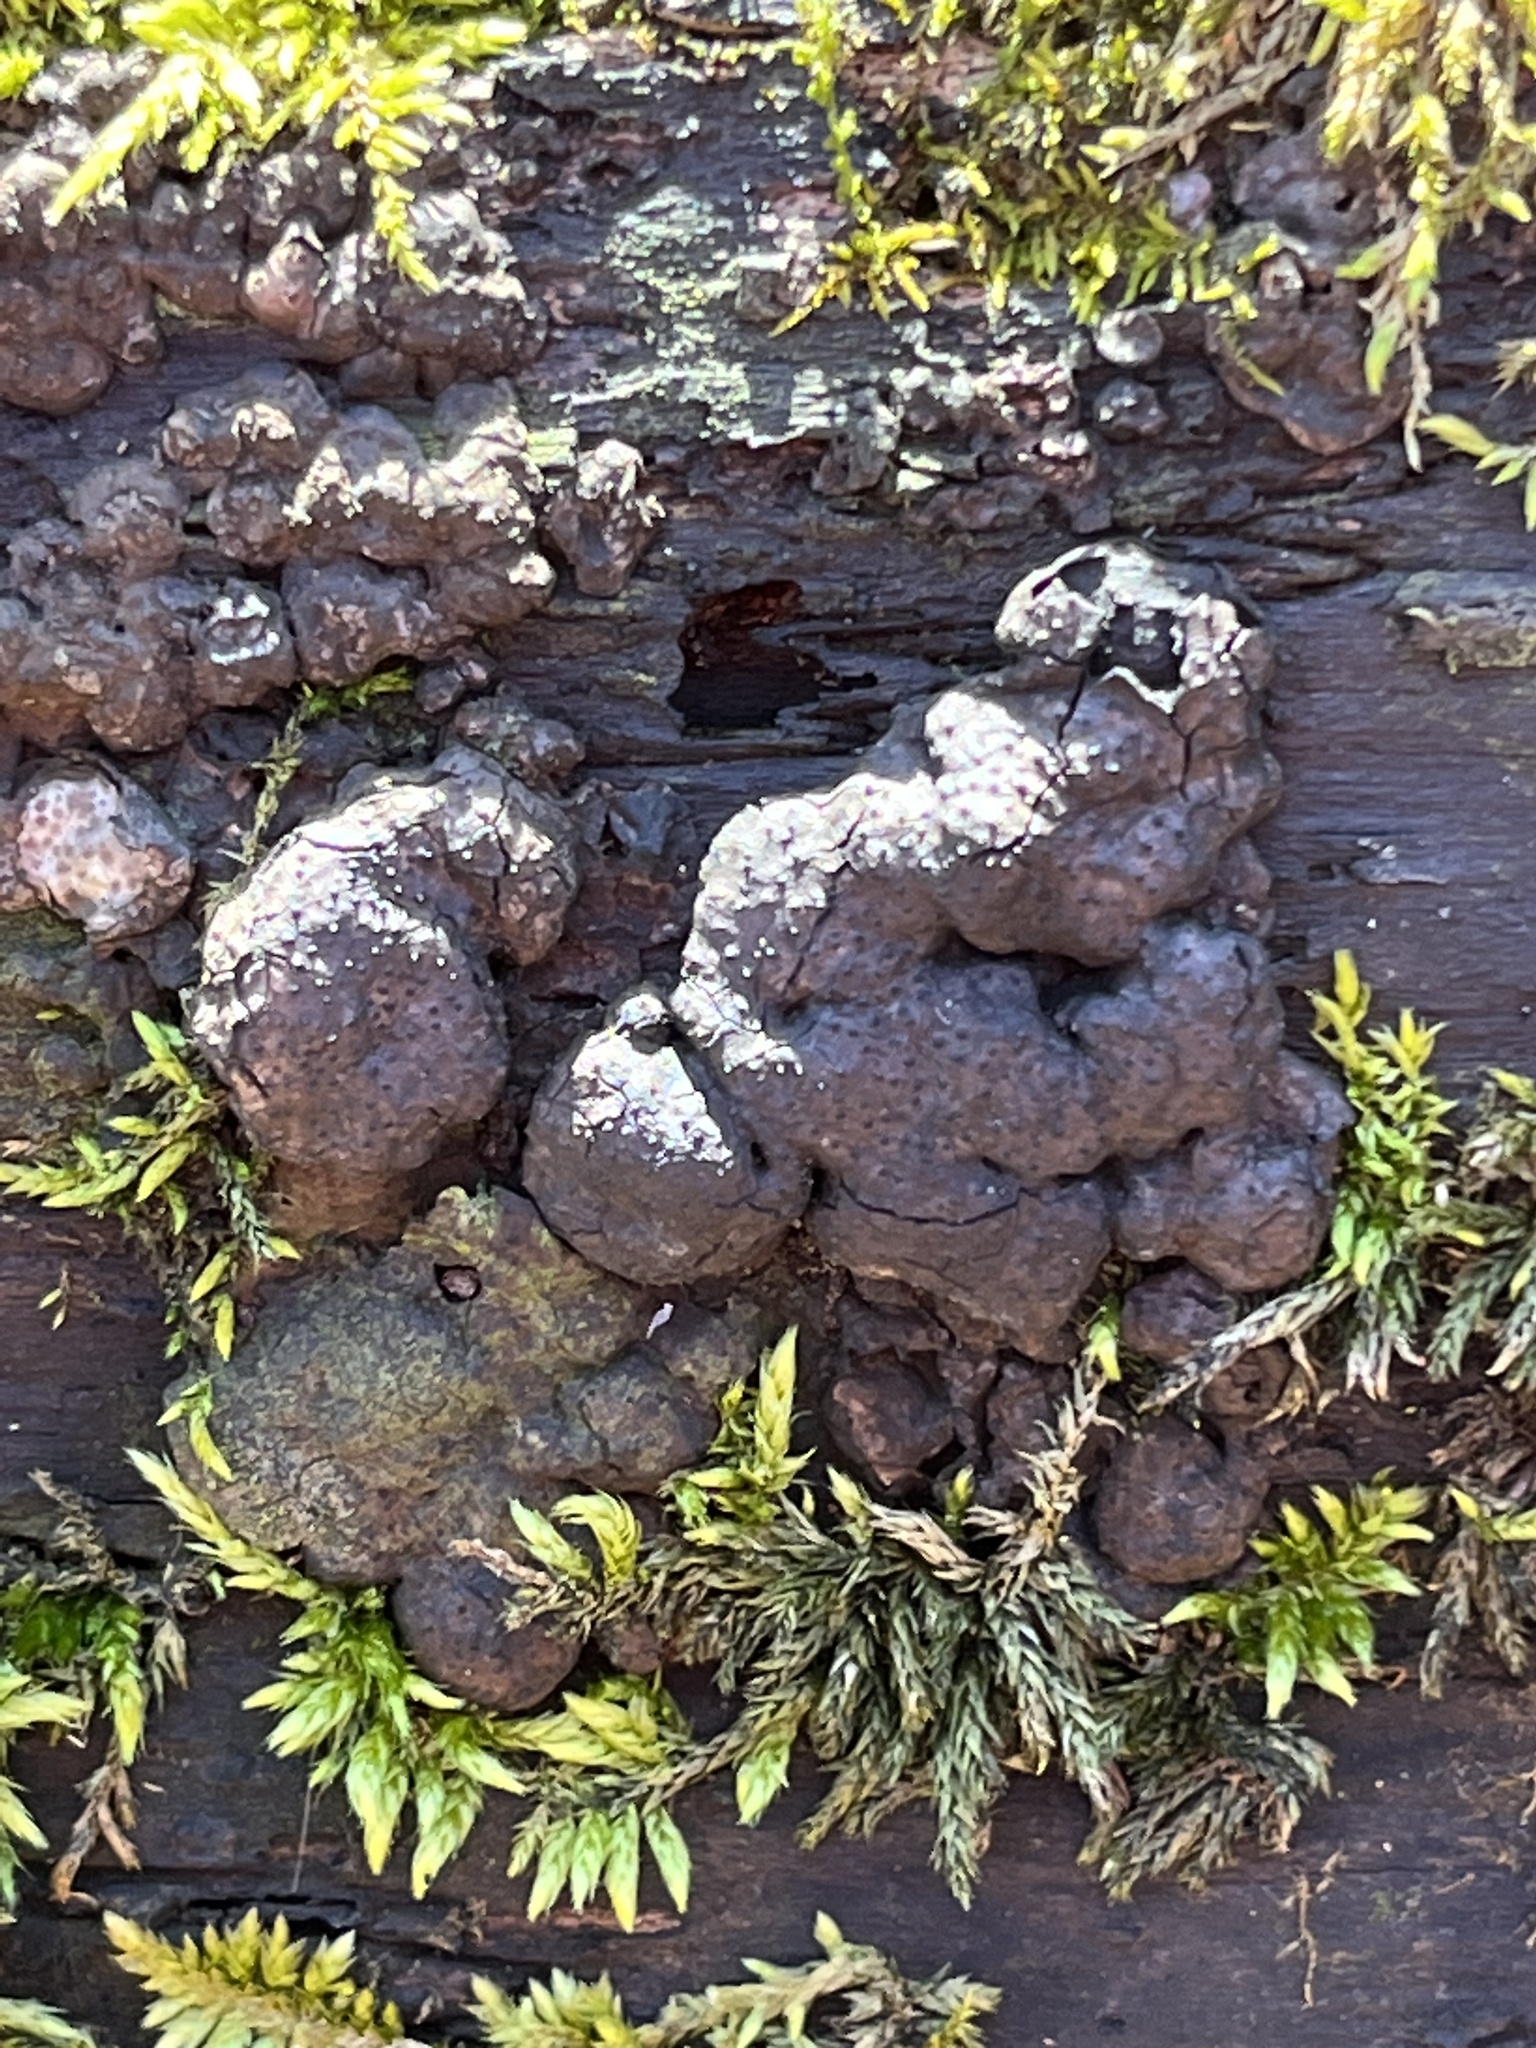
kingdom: Fungi
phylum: Ascomycota
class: Sordariomycetes
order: Xylariales
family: Xylariaceae
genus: Kretzschmaria
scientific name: Kretzschmaria deusta
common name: Brittle cinder
